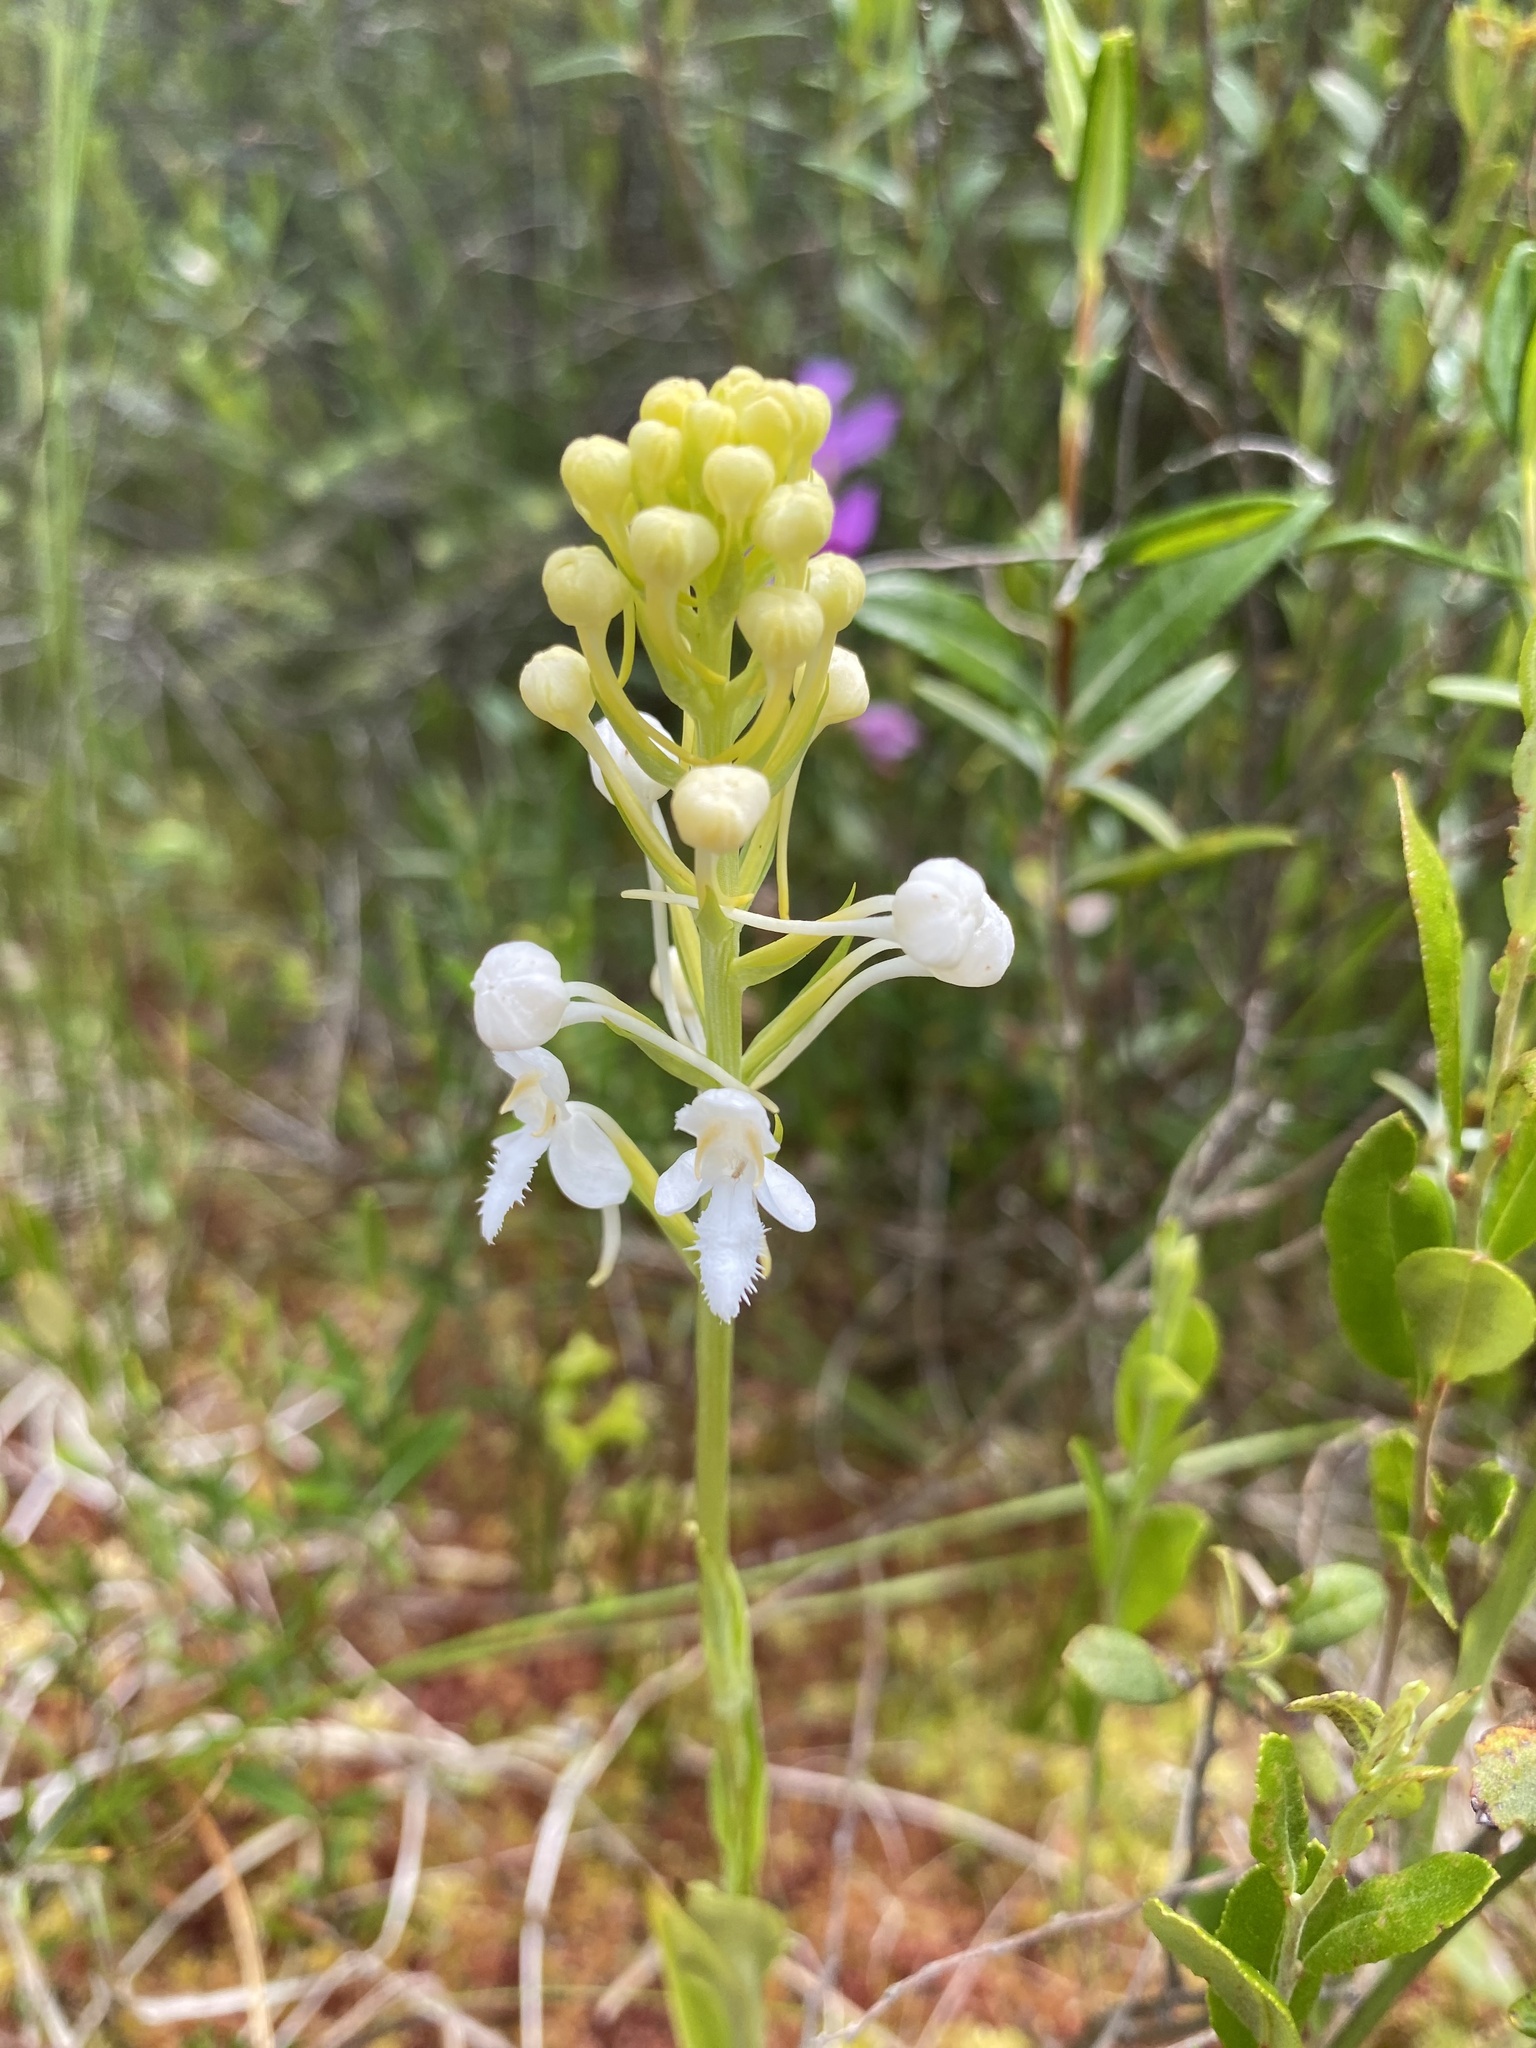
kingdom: Plantae
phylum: Tracheophyta
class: Liliopsida
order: Asparagales
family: Orchidaceae
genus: Platanthera
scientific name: Platanthera blephariglottis
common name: White fringed orchid
